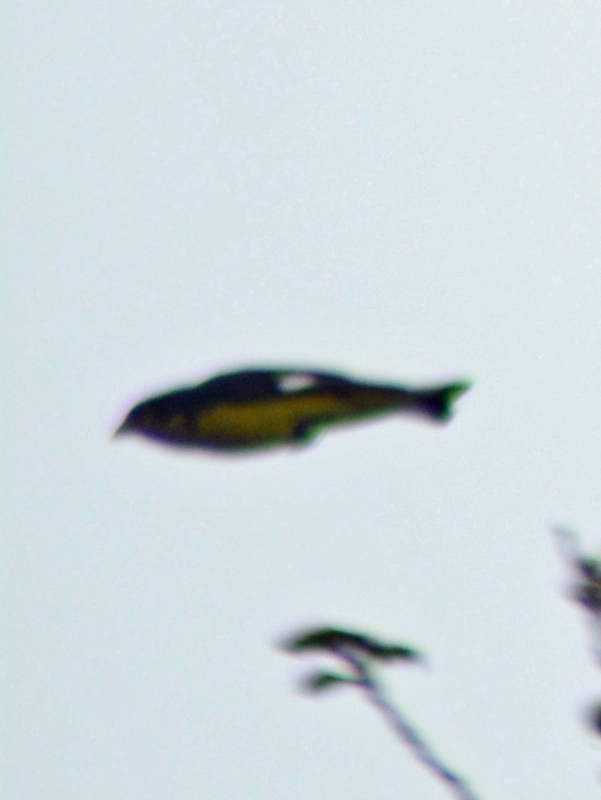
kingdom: Animalia
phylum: Chordata
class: Aves
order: Passeriformes
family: Icteridae
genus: Icterus
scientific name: Icterus abeillei
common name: Black-backed oriole
